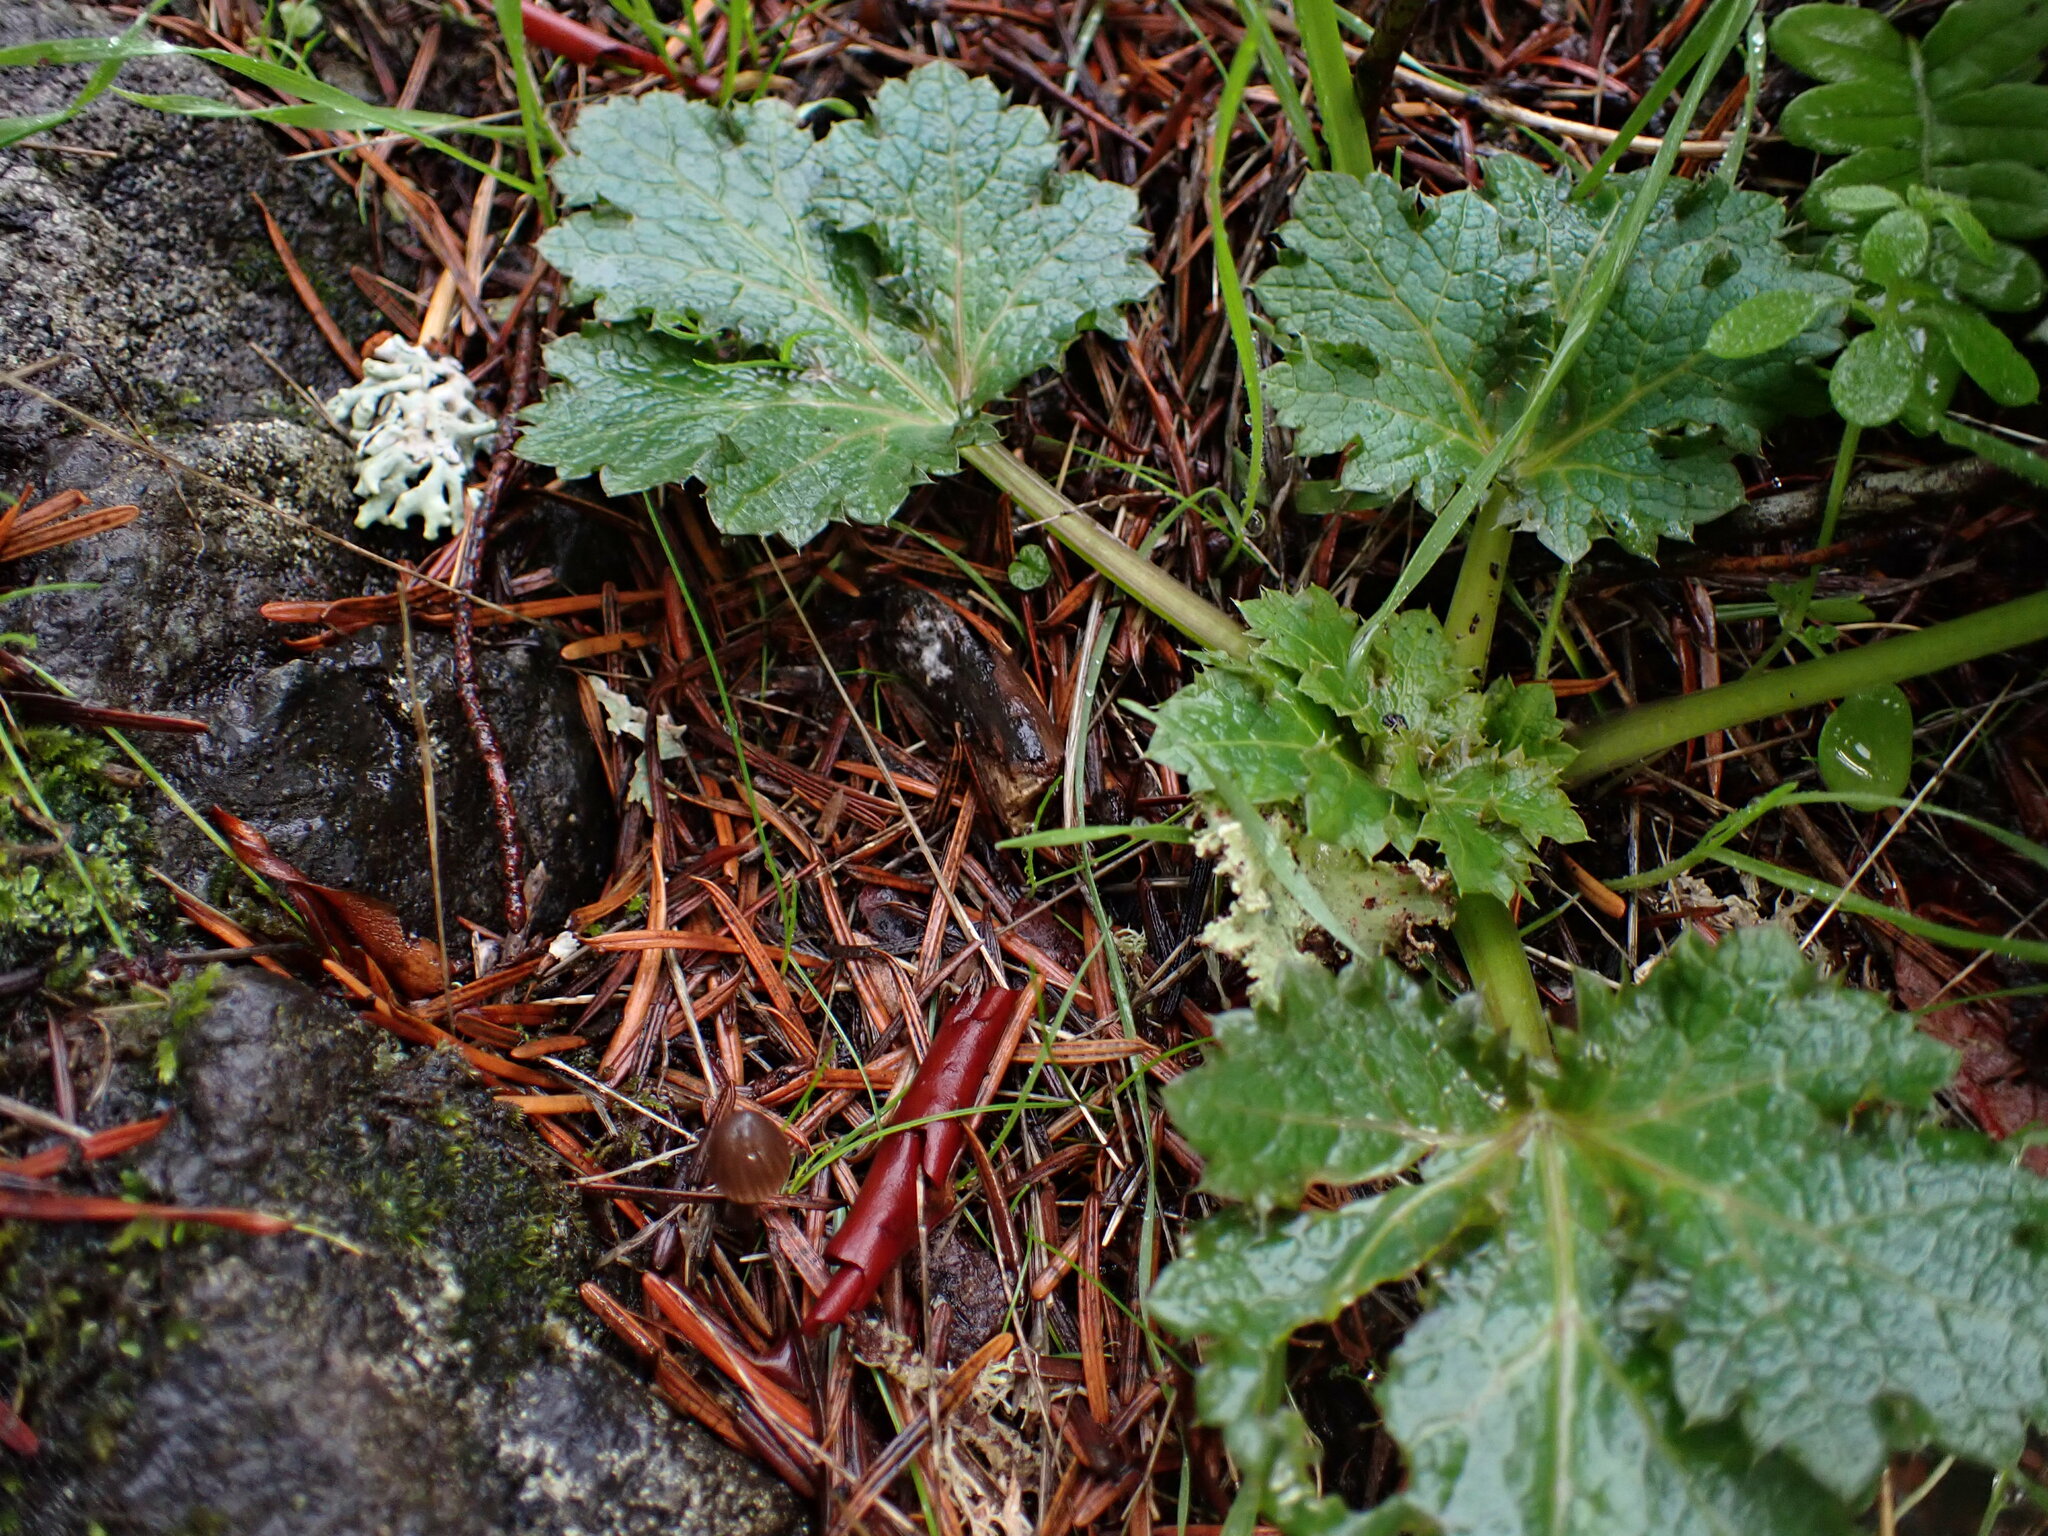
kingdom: Plantae
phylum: Tracheophyta
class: Magnoliopsida
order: Apiales
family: Apiaceae
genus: Sanicula
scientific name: Sanicula crassicaulis
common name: Western snakeroot
